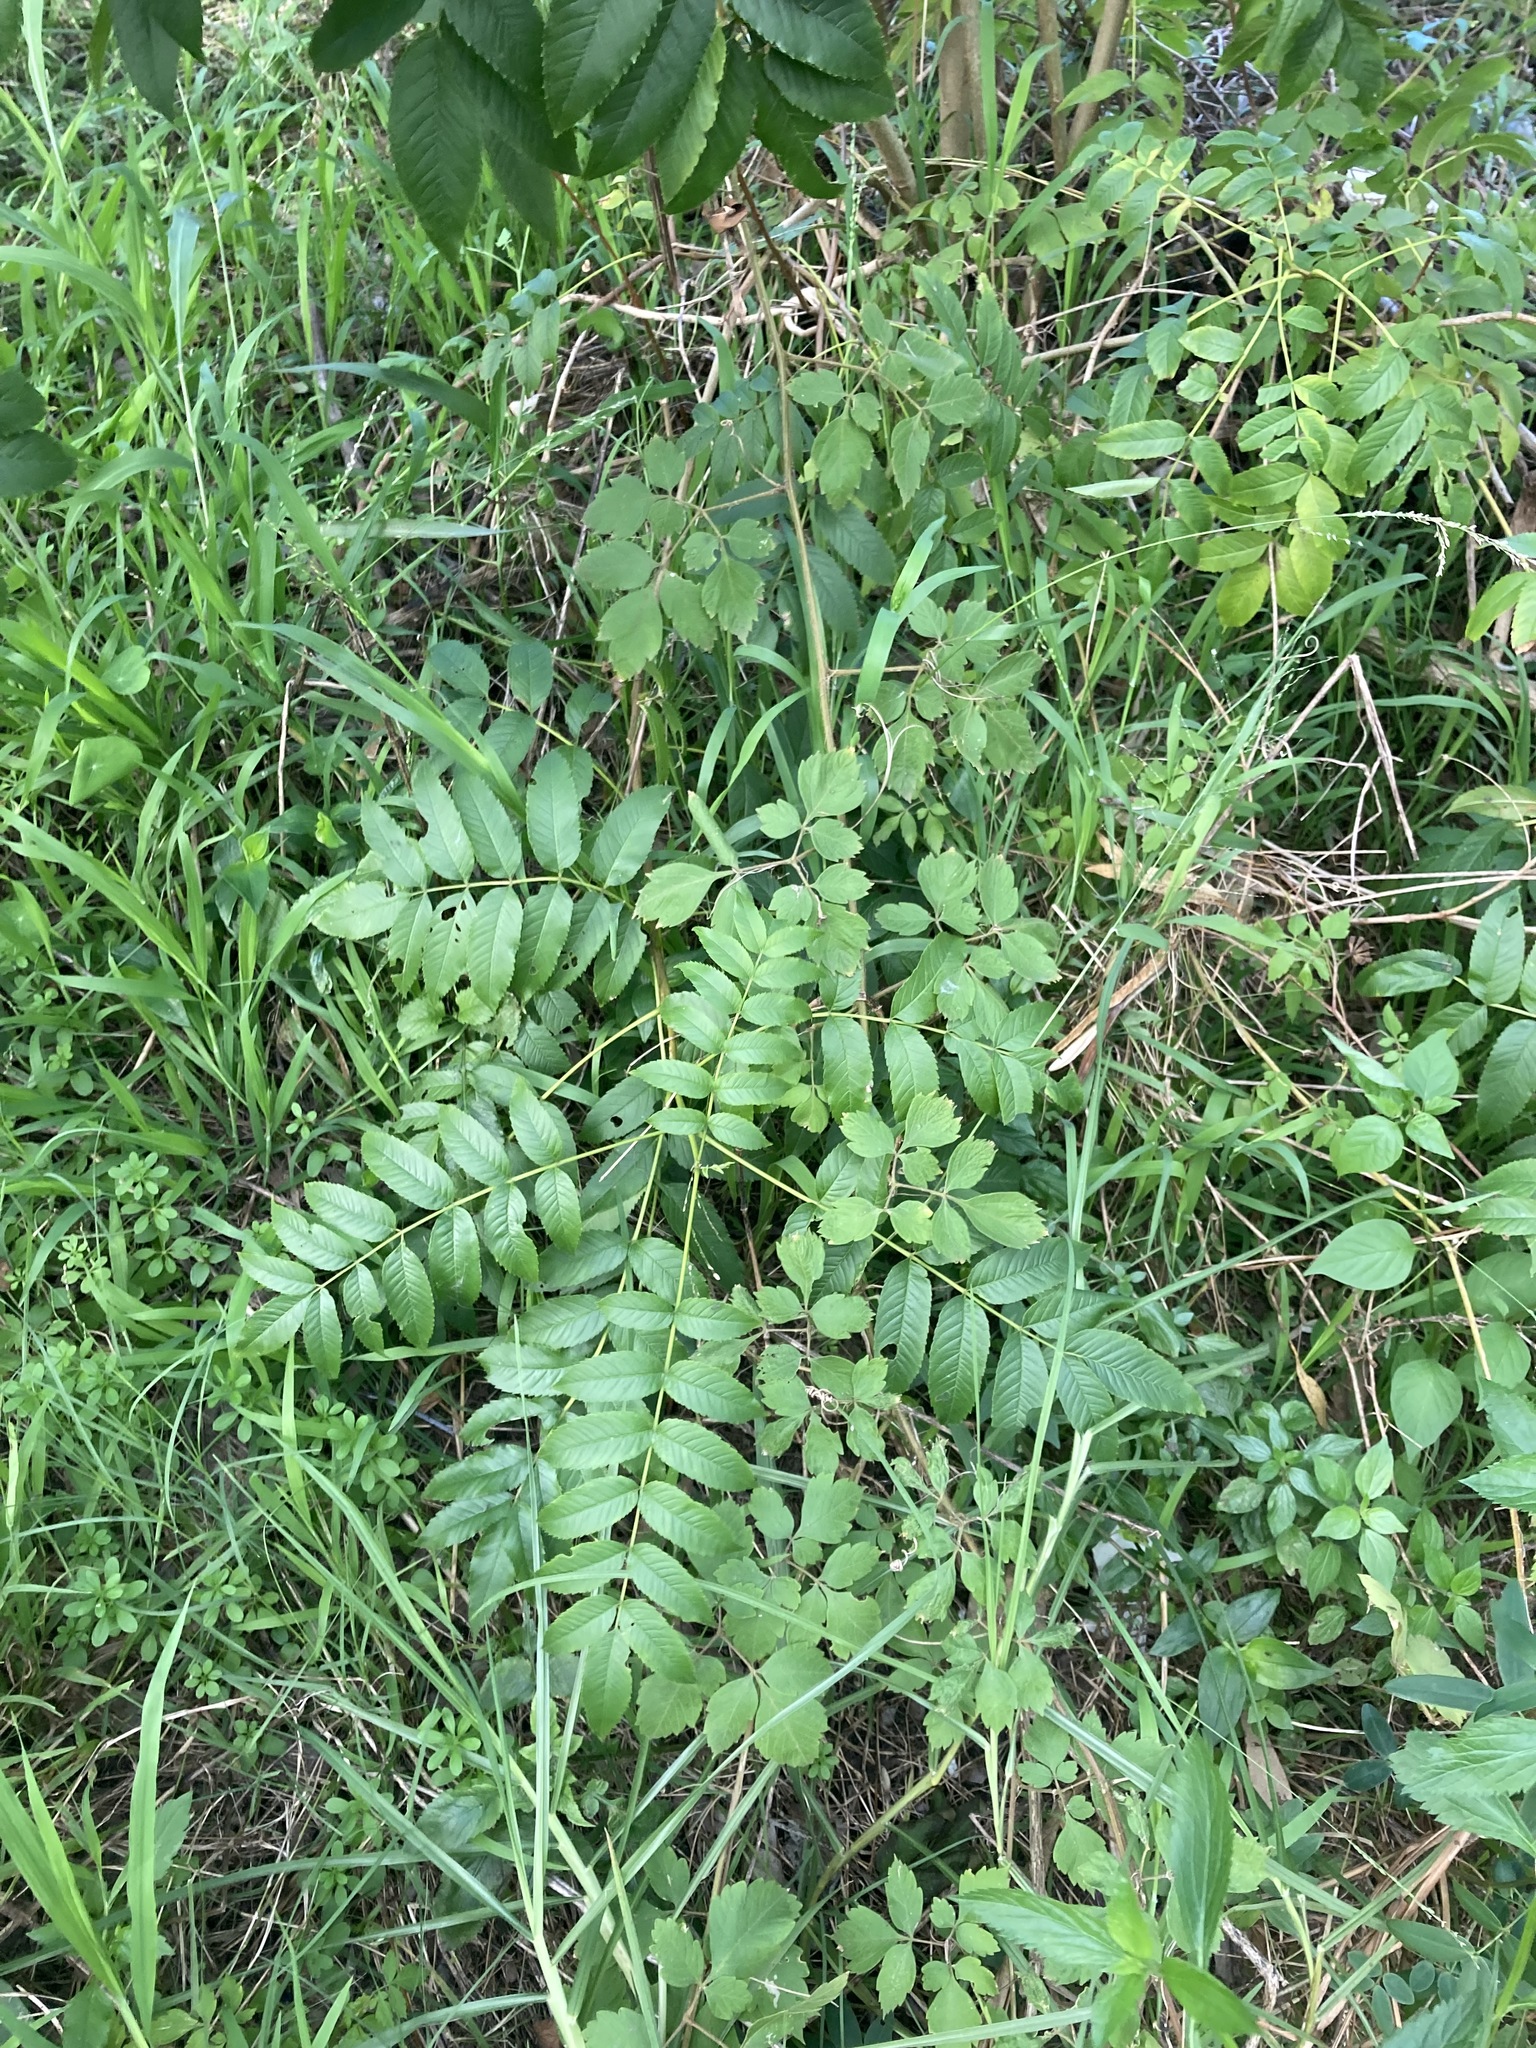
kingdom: Plantae
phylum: Tracheophyta
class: Magnoliopsida
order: Lamiales
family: Bignoniaceae
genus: Tecoma
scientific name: Tecoma stans
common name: Yellow trumpetbush
